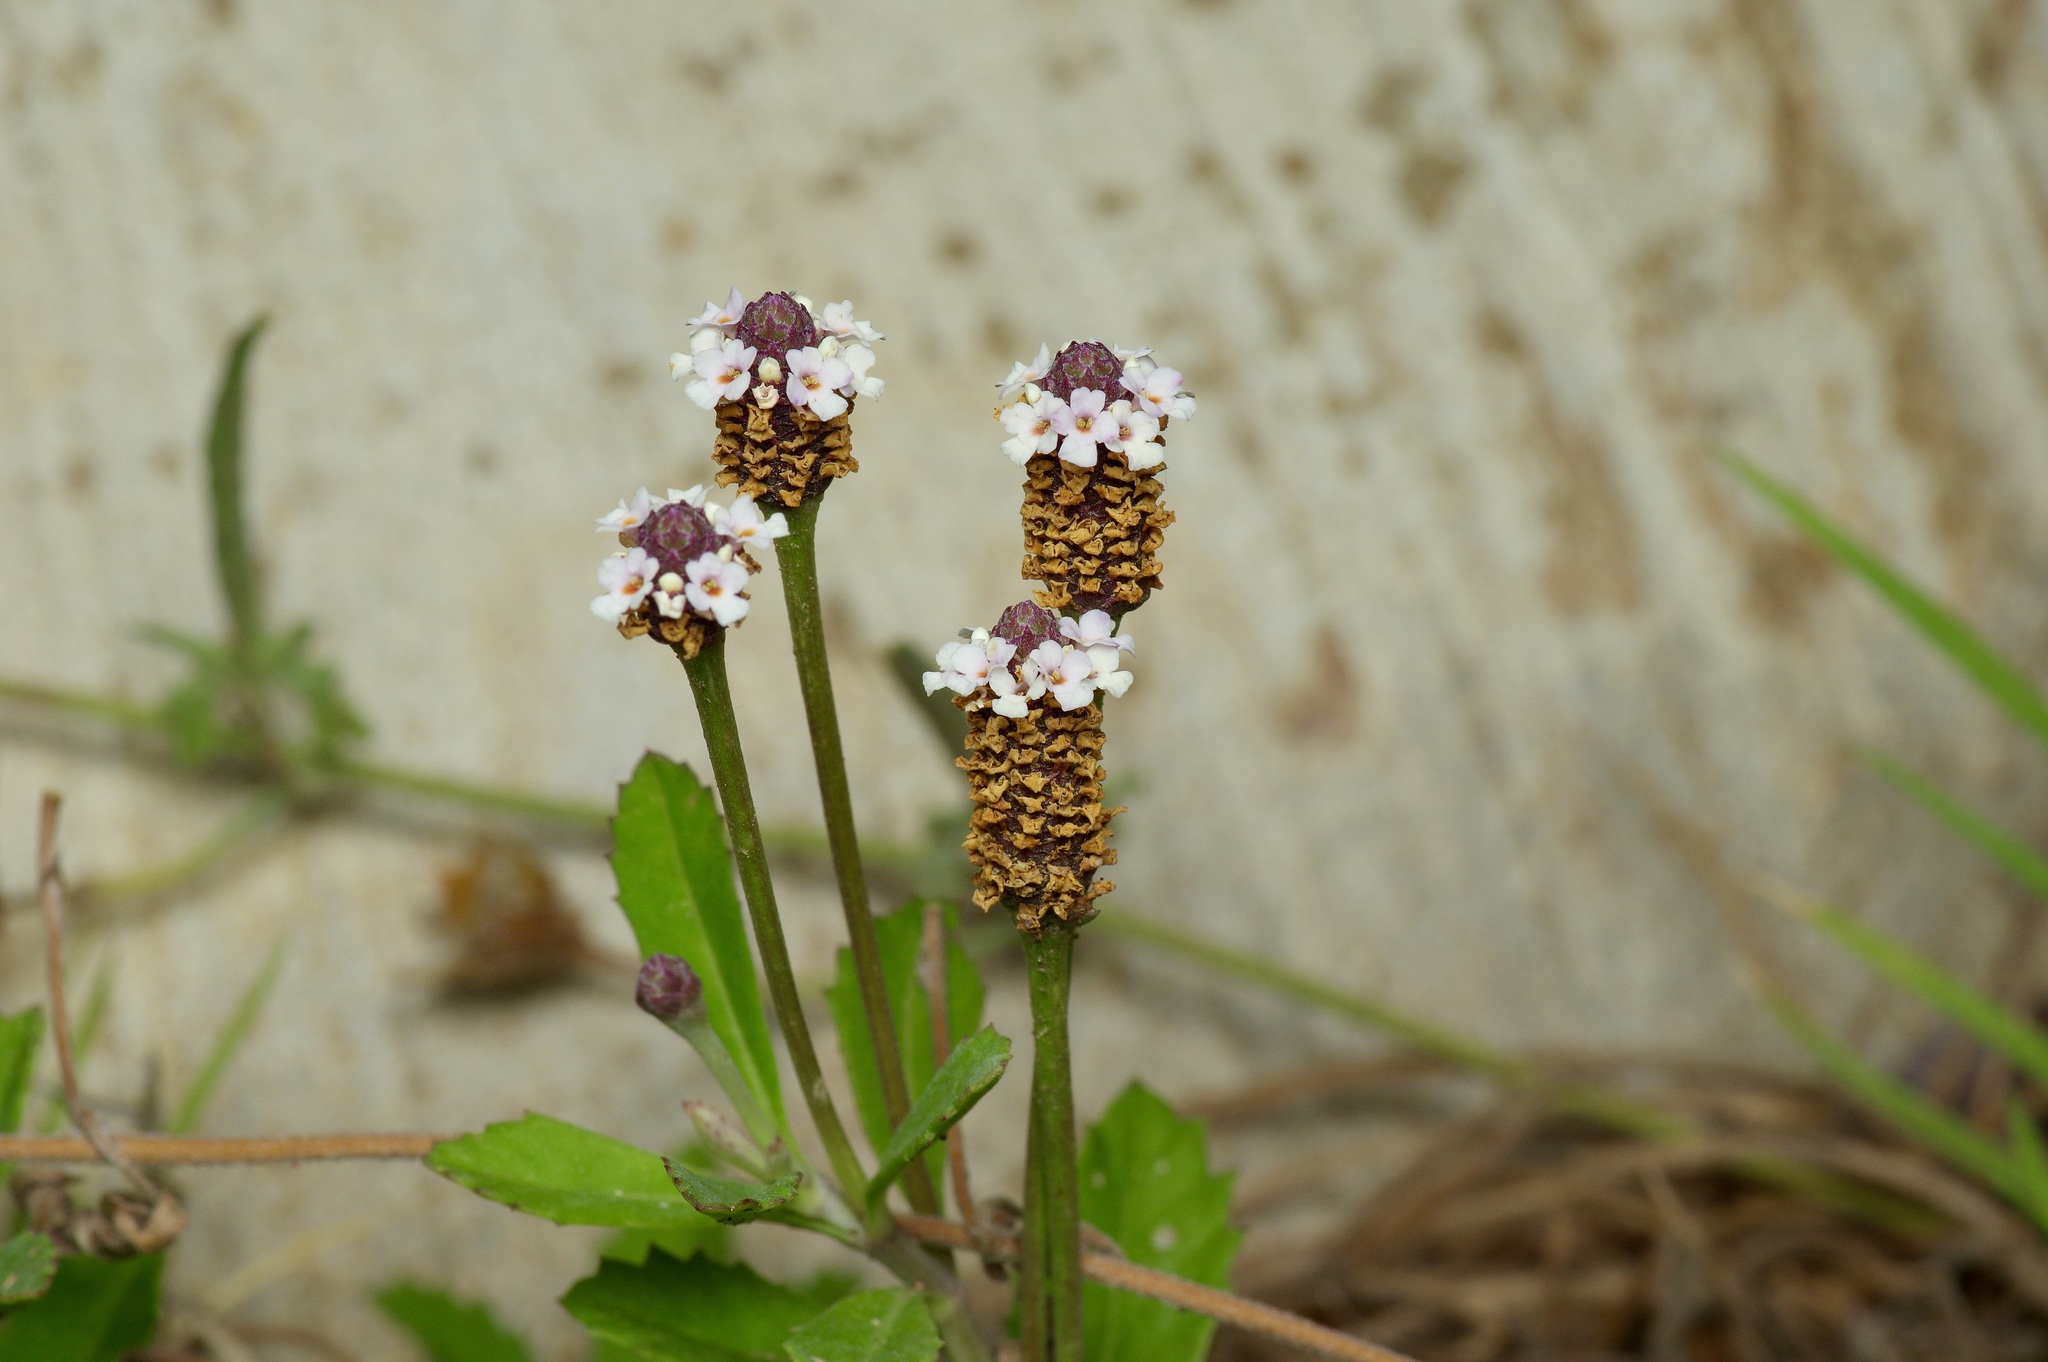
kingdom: Plantae
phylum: Tracheophyta
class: Magnoliopsida
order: Lamiales
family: Verbenaceae
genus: Phyla
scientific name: Phyla nodiflora
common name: Frogfruit
